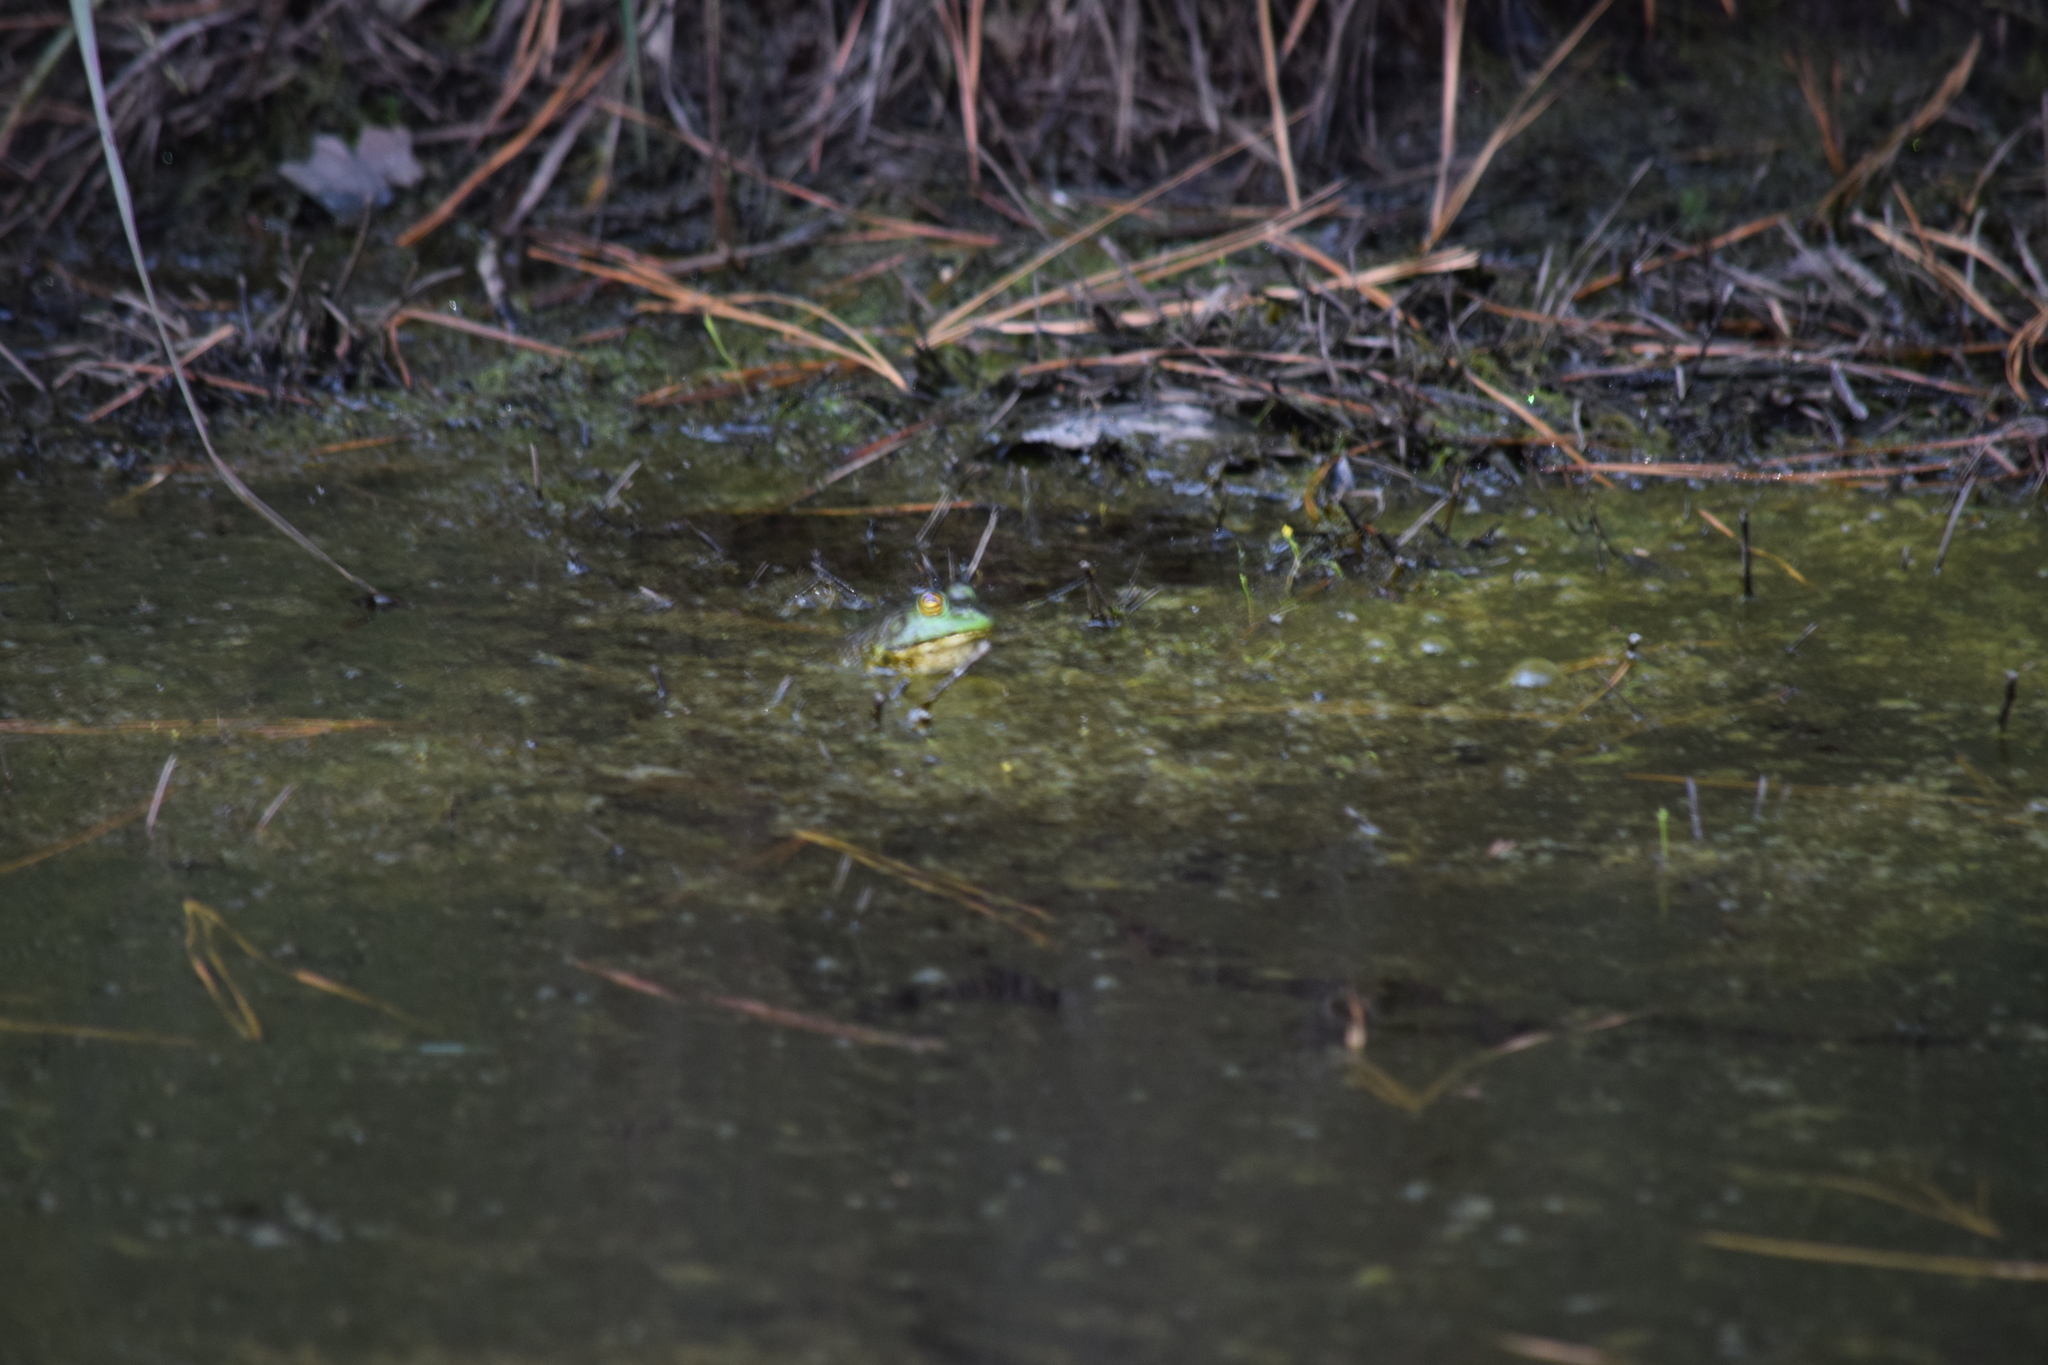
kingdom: Animalia
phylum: Chordata
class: Amphibia
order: Anura
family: Ranidae
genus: Lithobates
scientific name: Lithobates catesbeianus
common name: American bullfrog
